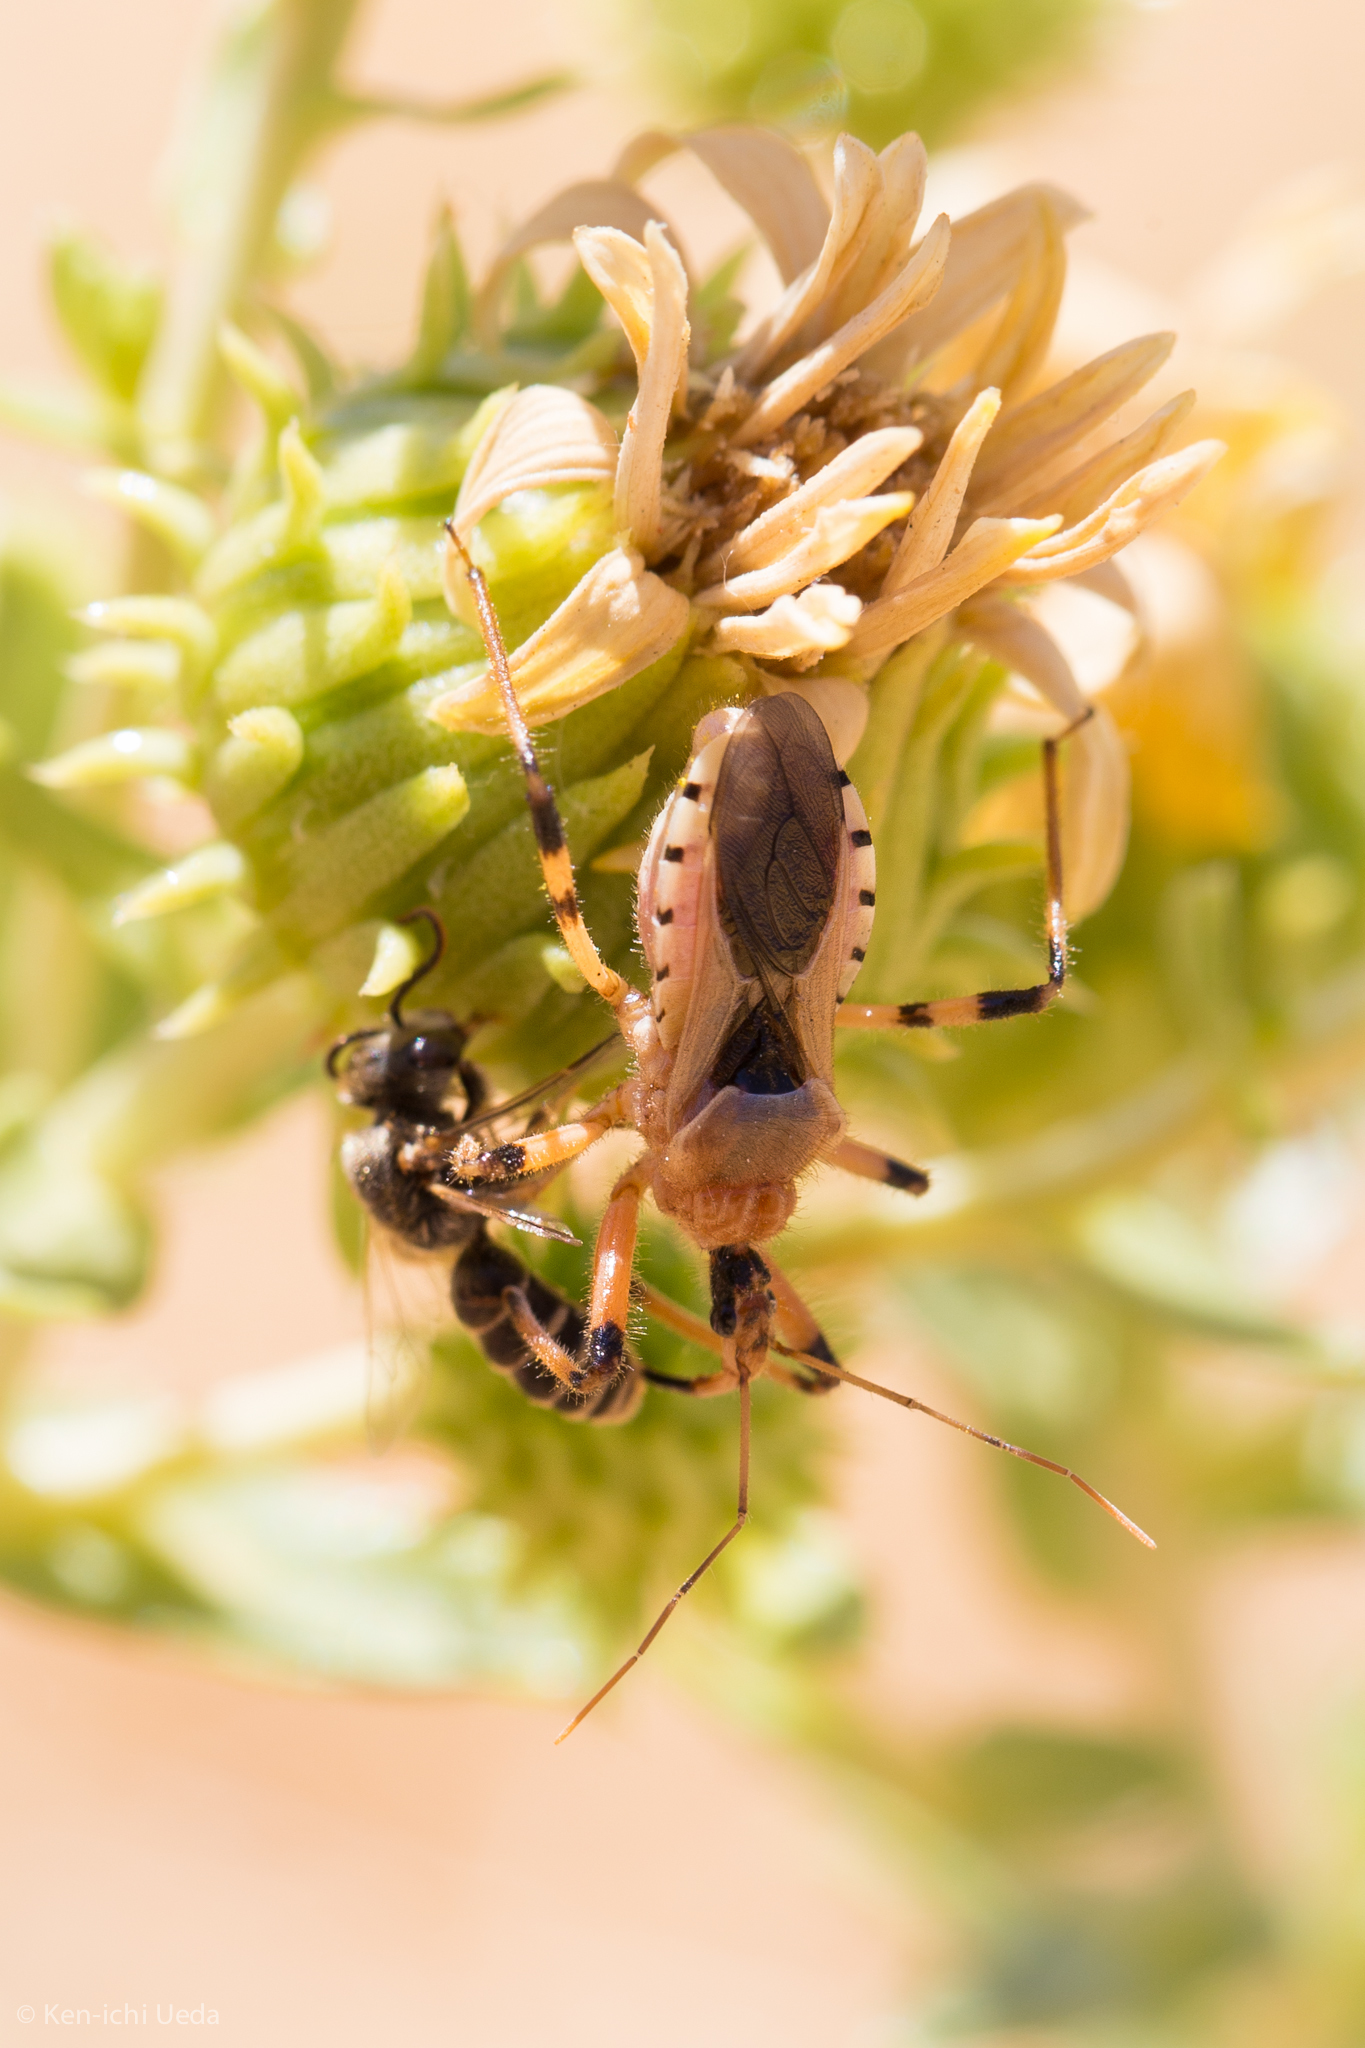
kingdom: Animalia
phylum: Arthropoda
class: Insecta
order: Hemiptera
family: Reduviidae
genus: Rhynocoris
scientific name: Rhynocoris ventralis
